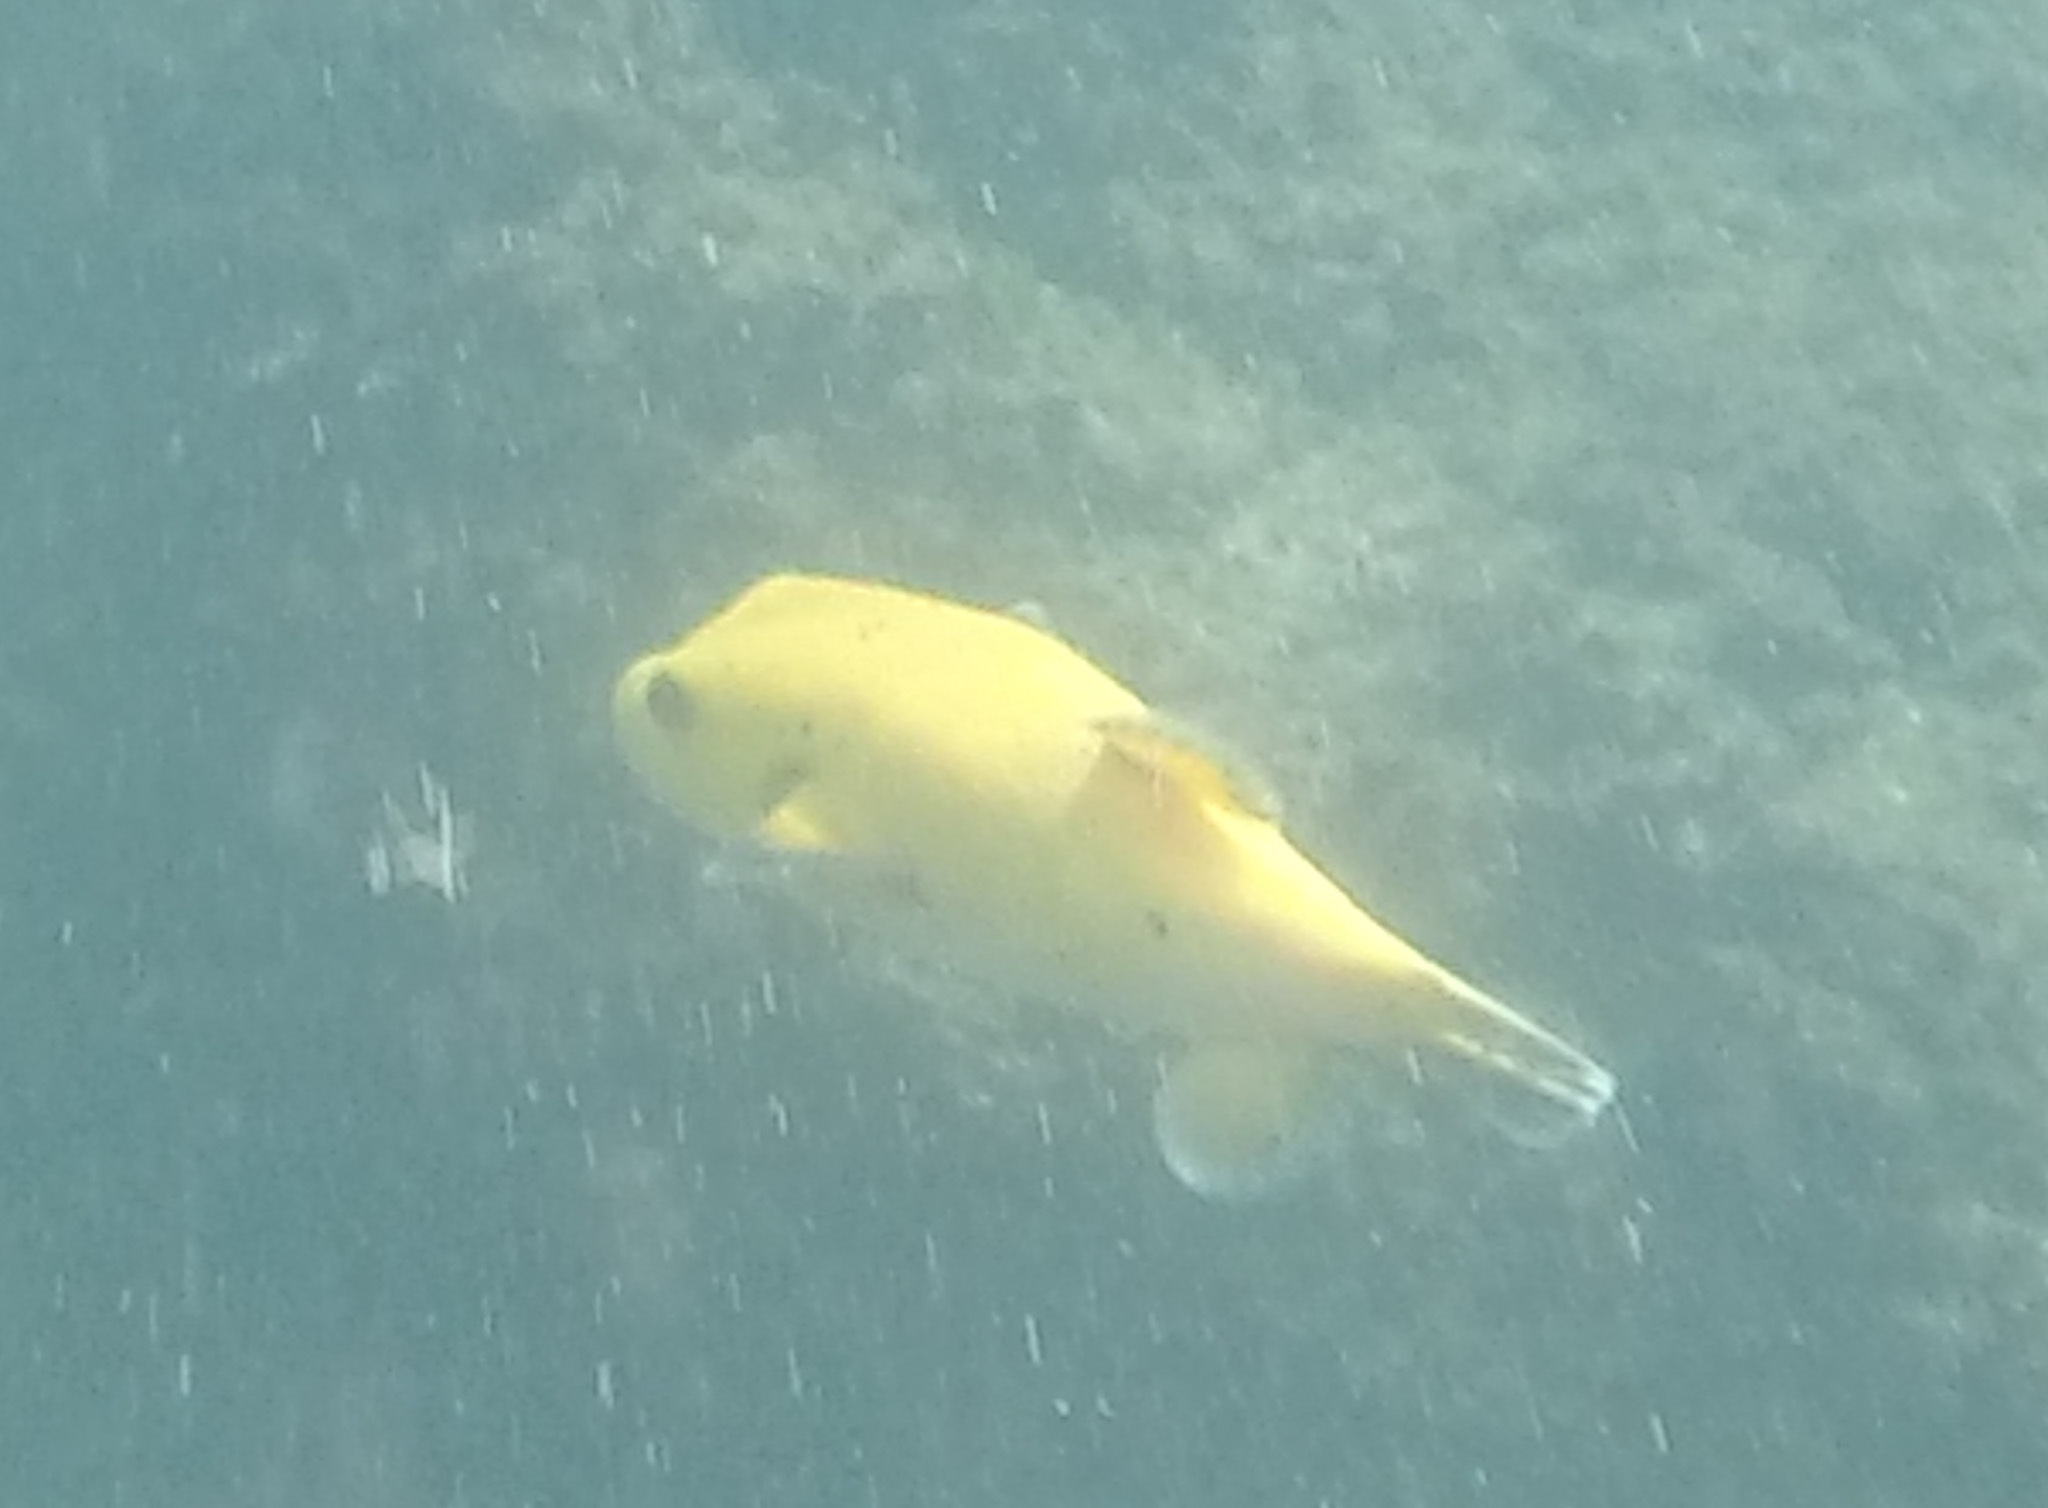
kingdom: Animalia
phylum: Chordata
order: Tetraodontiformes
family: Tetraodontidae
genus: Arothron
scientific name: Arothron meleagris
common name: Guinea-fowl pufferfish
